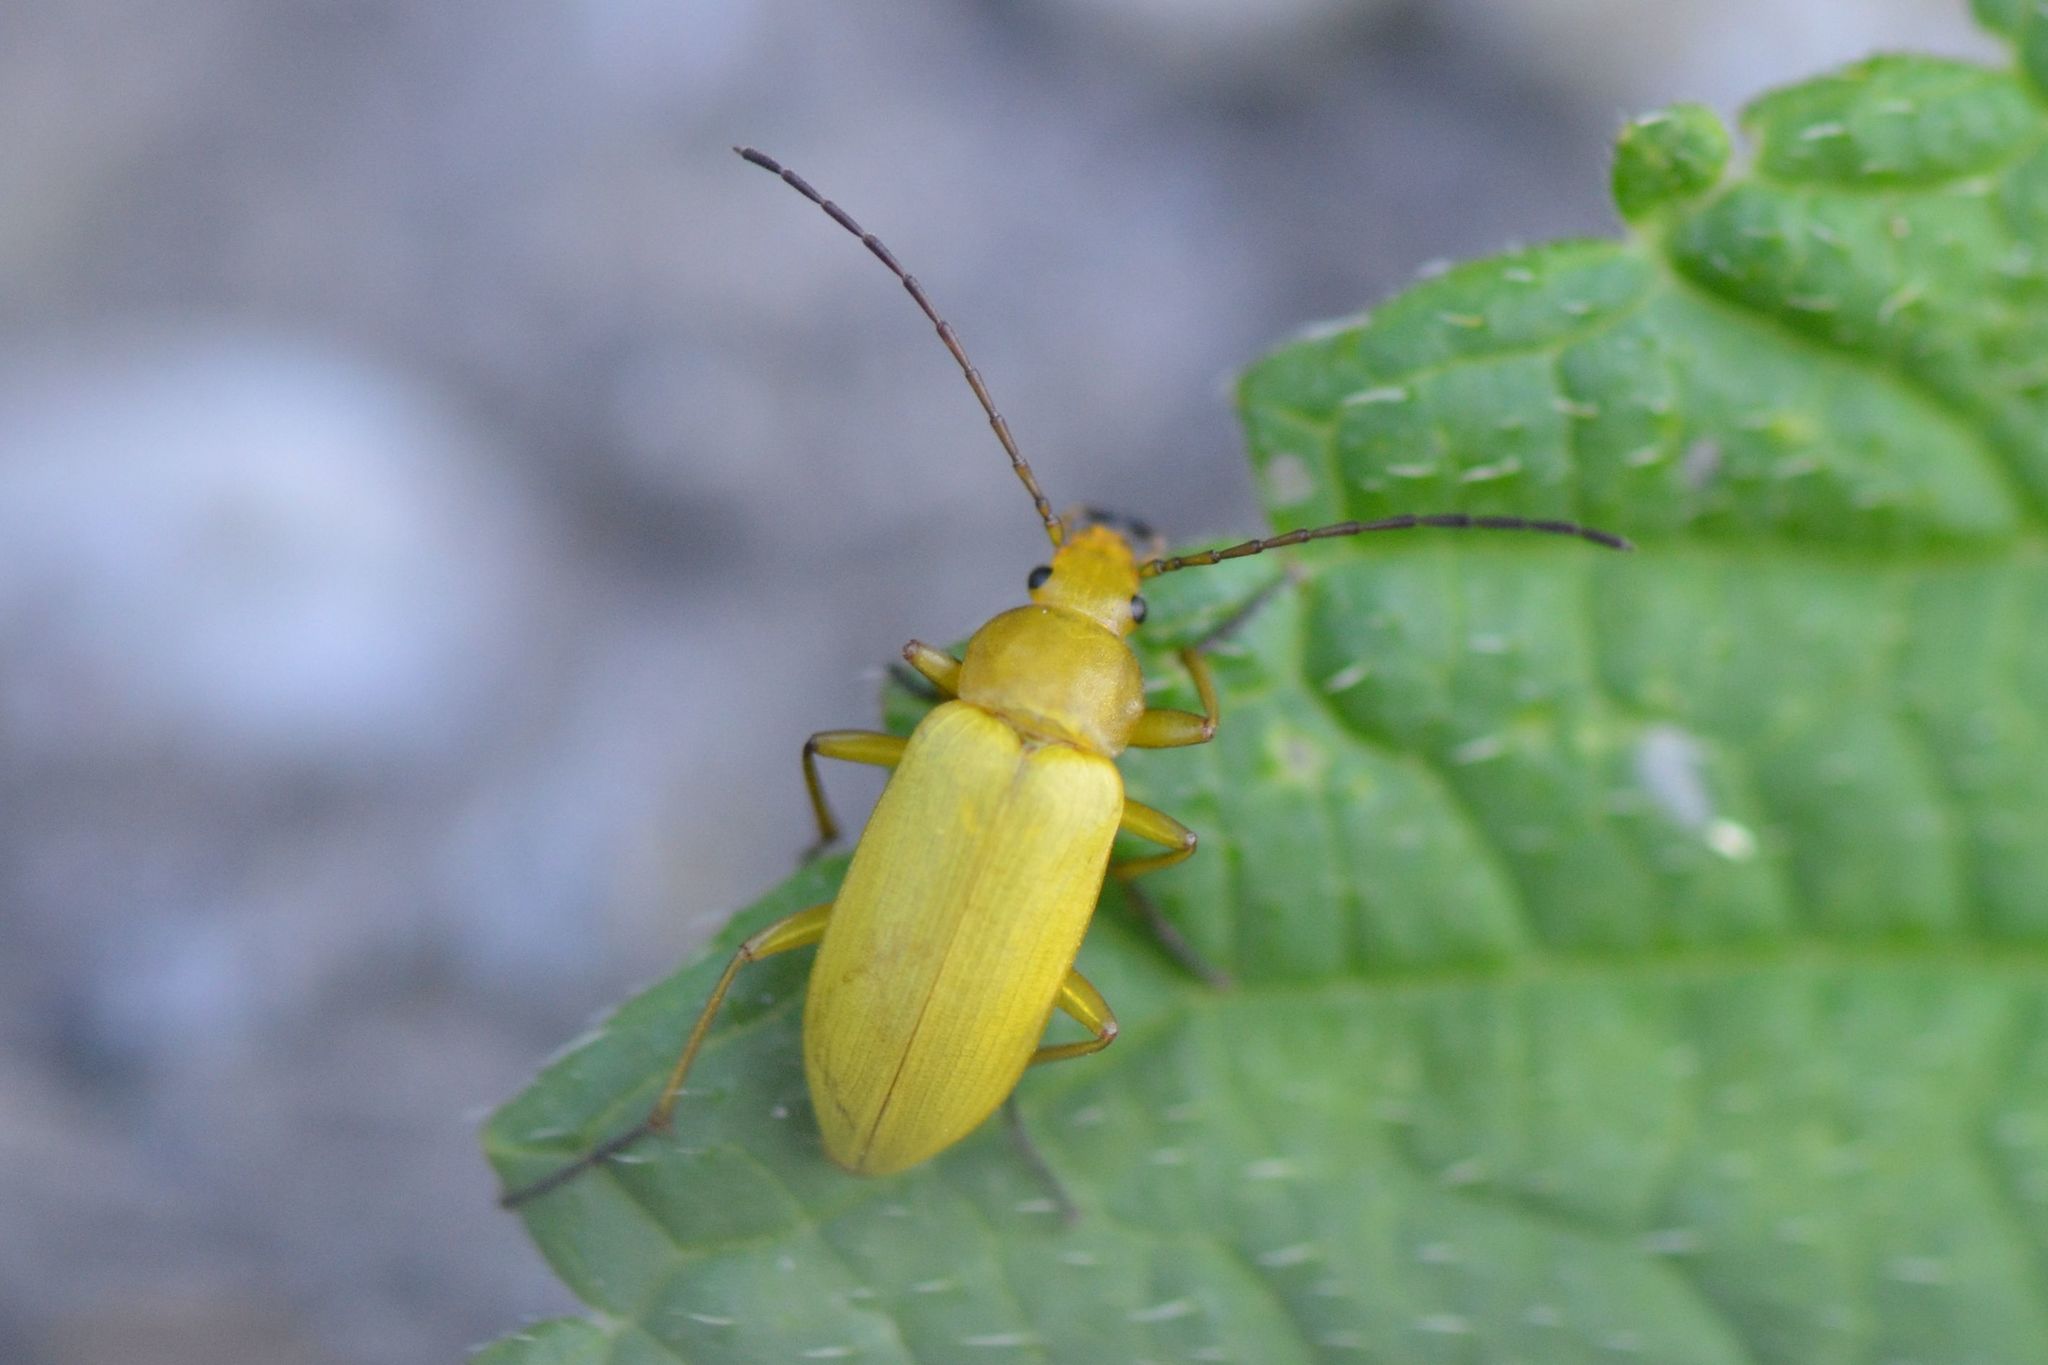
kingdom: Animalia
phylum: Arthropoda
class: Insecta
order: Coleoptera
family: Tenebrionidae
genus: Cteniopus
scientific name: Cteniopus sulphureus
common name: Sulphur beetle
